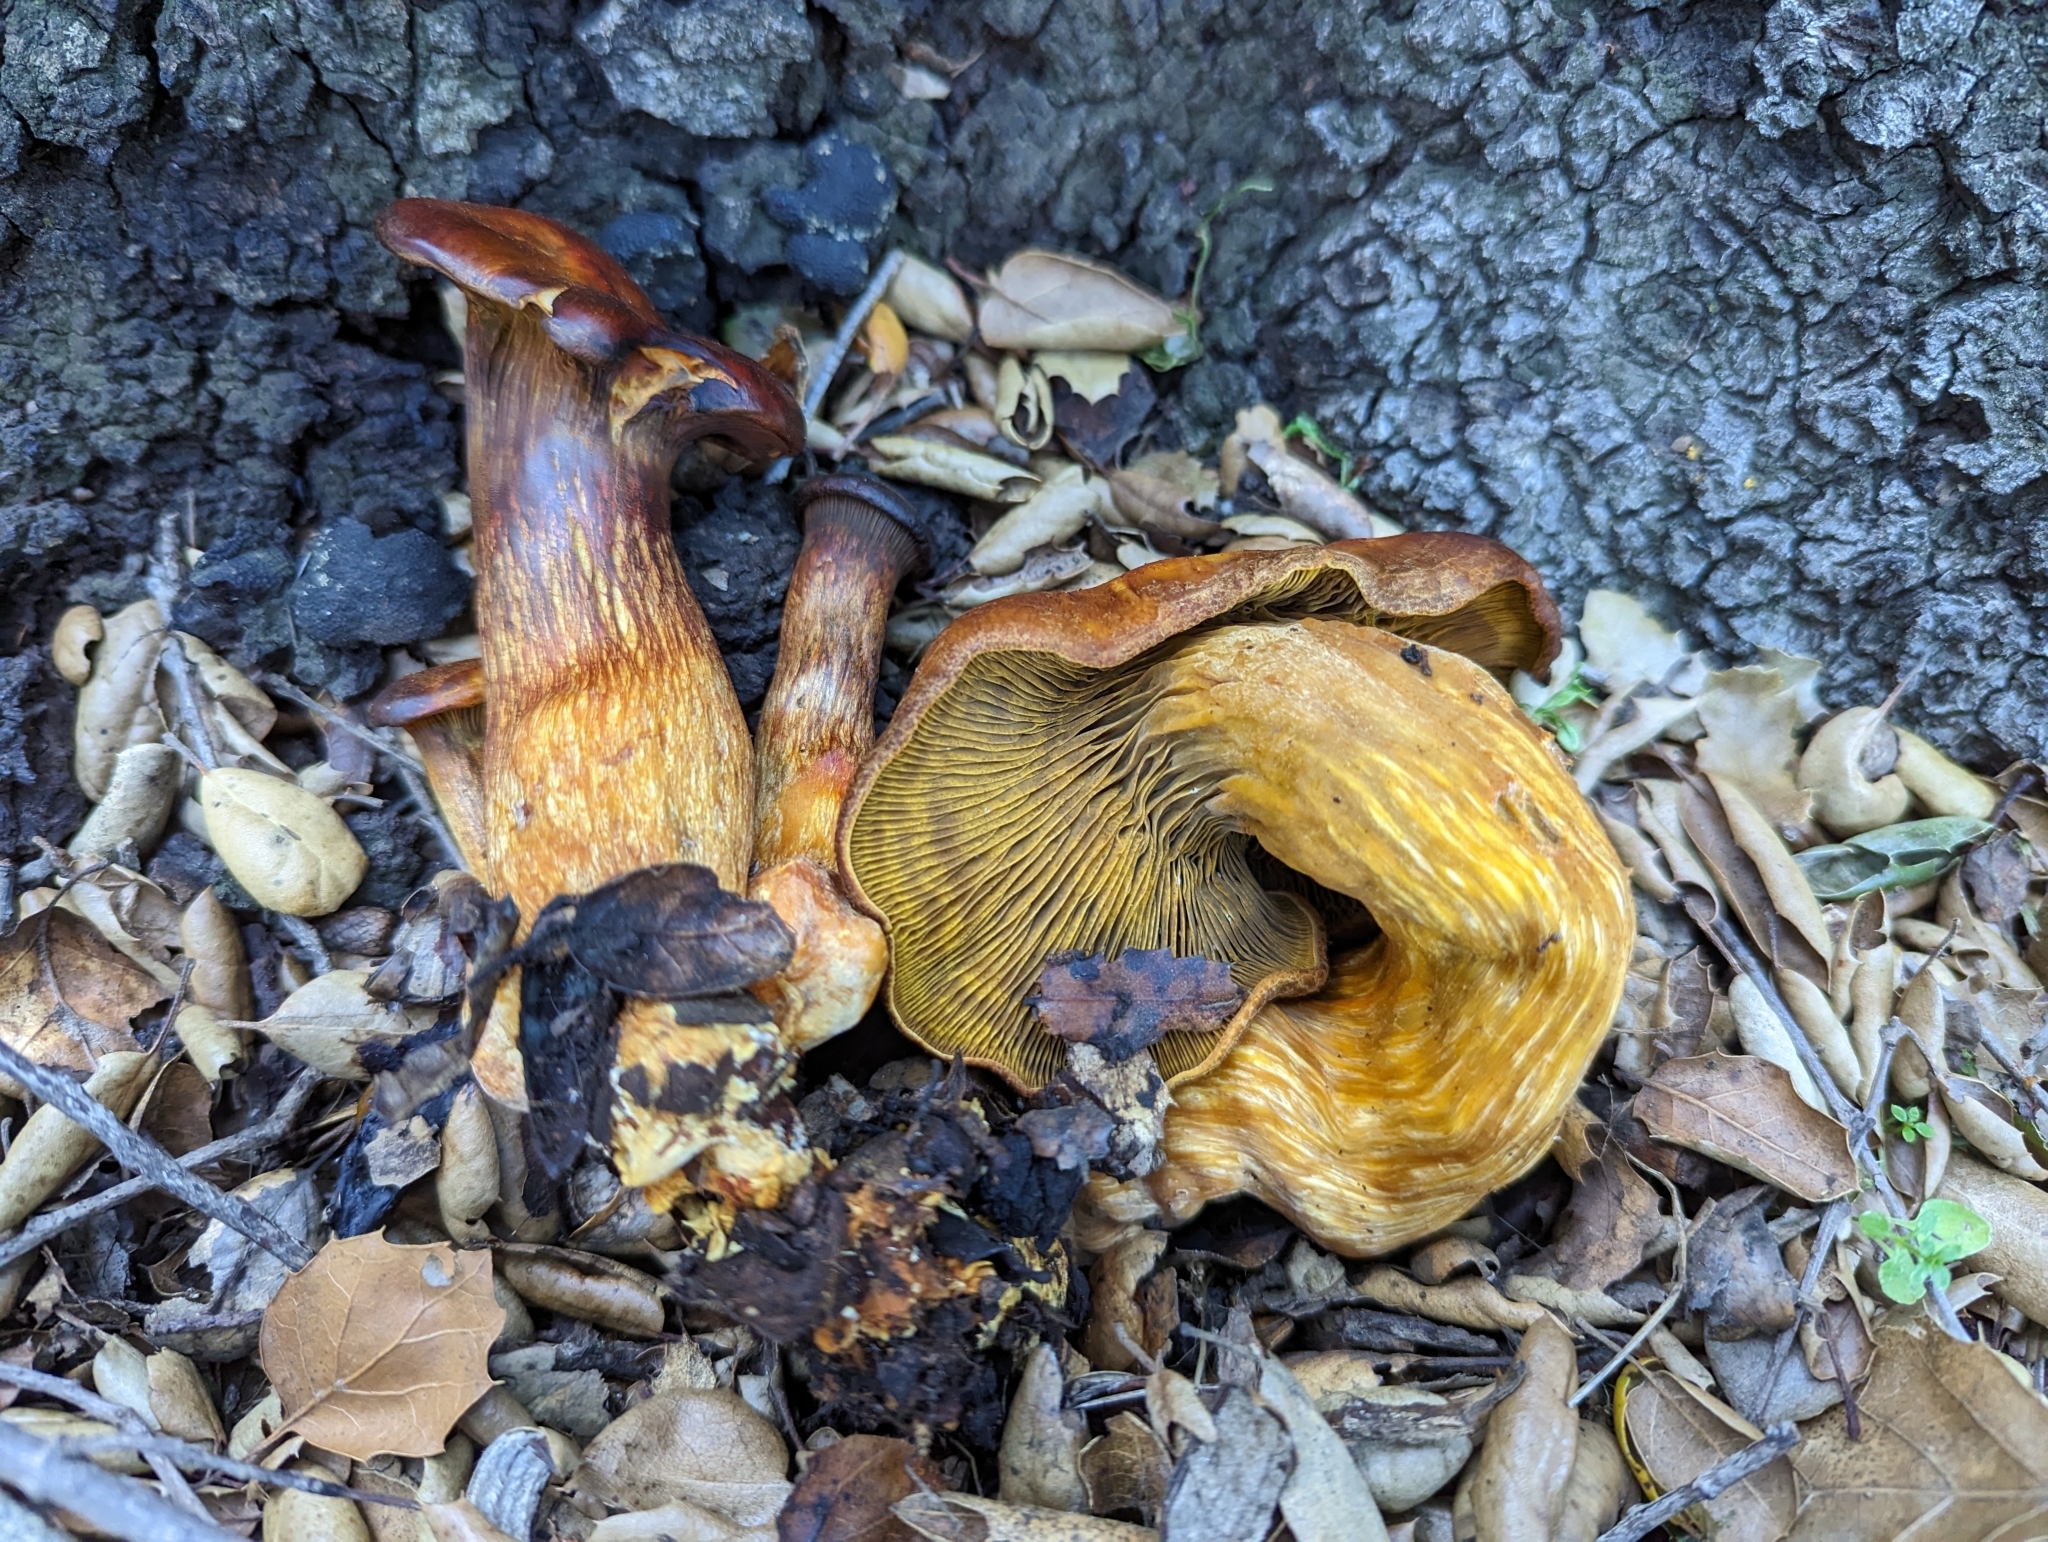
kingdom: Fungi
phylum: Basidiomycota
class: Agaricomycetes
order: Agaricales
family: Omphalotaceae
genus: Omphalotus
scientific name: Omphalotus olivascens
